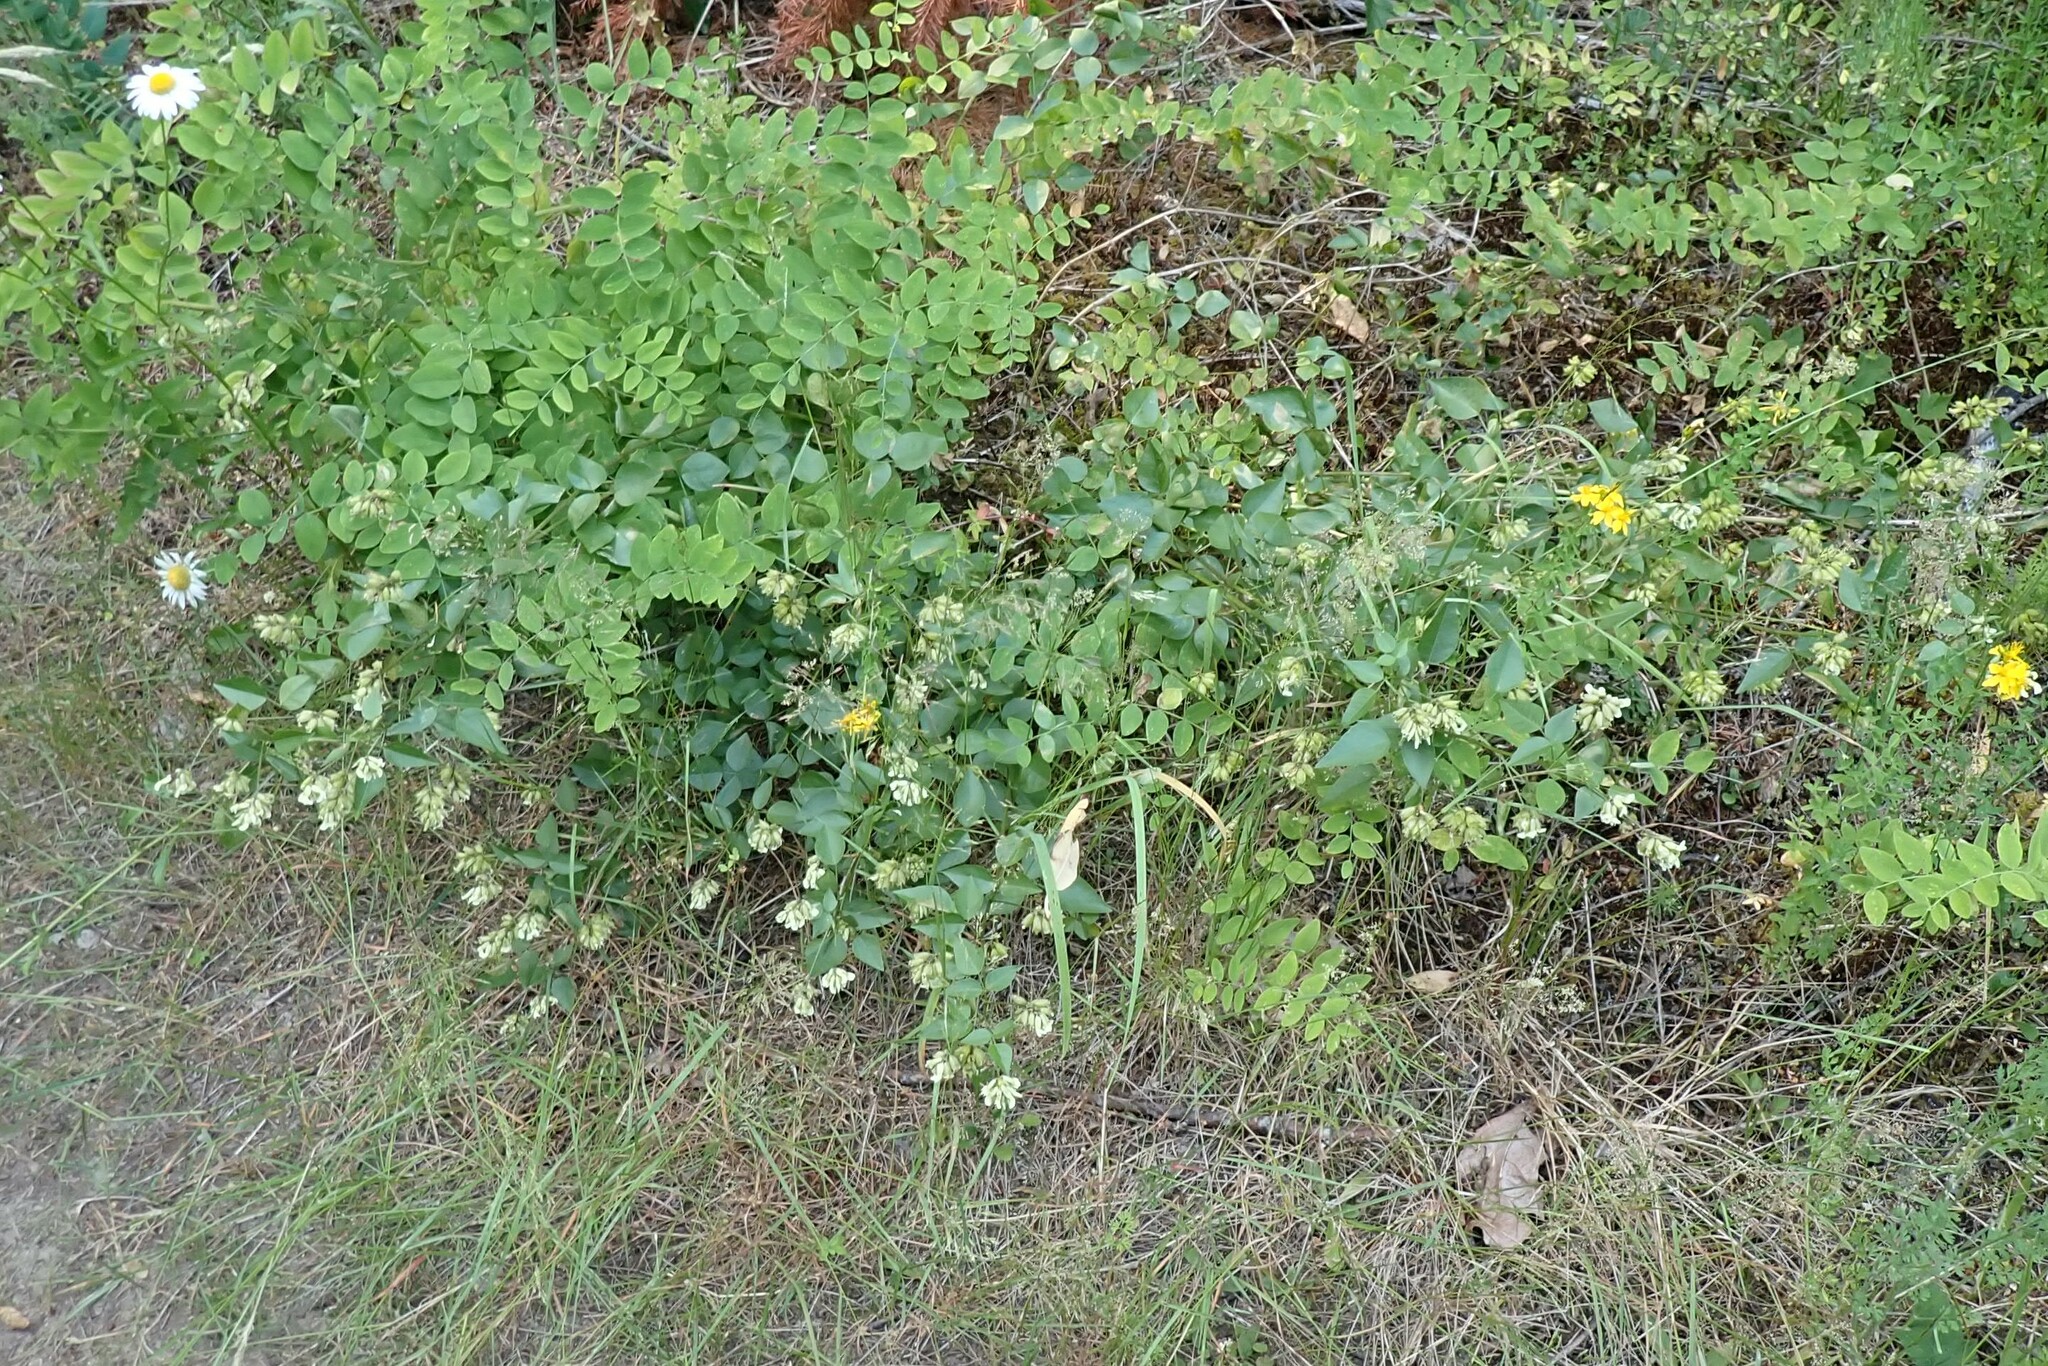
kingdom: Plantae
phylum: Tracheophyta
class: Magnoliopsida
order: Fabales
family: Fabaceae
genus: Rupertia
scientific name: Rupertia physodes
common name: California-tea
